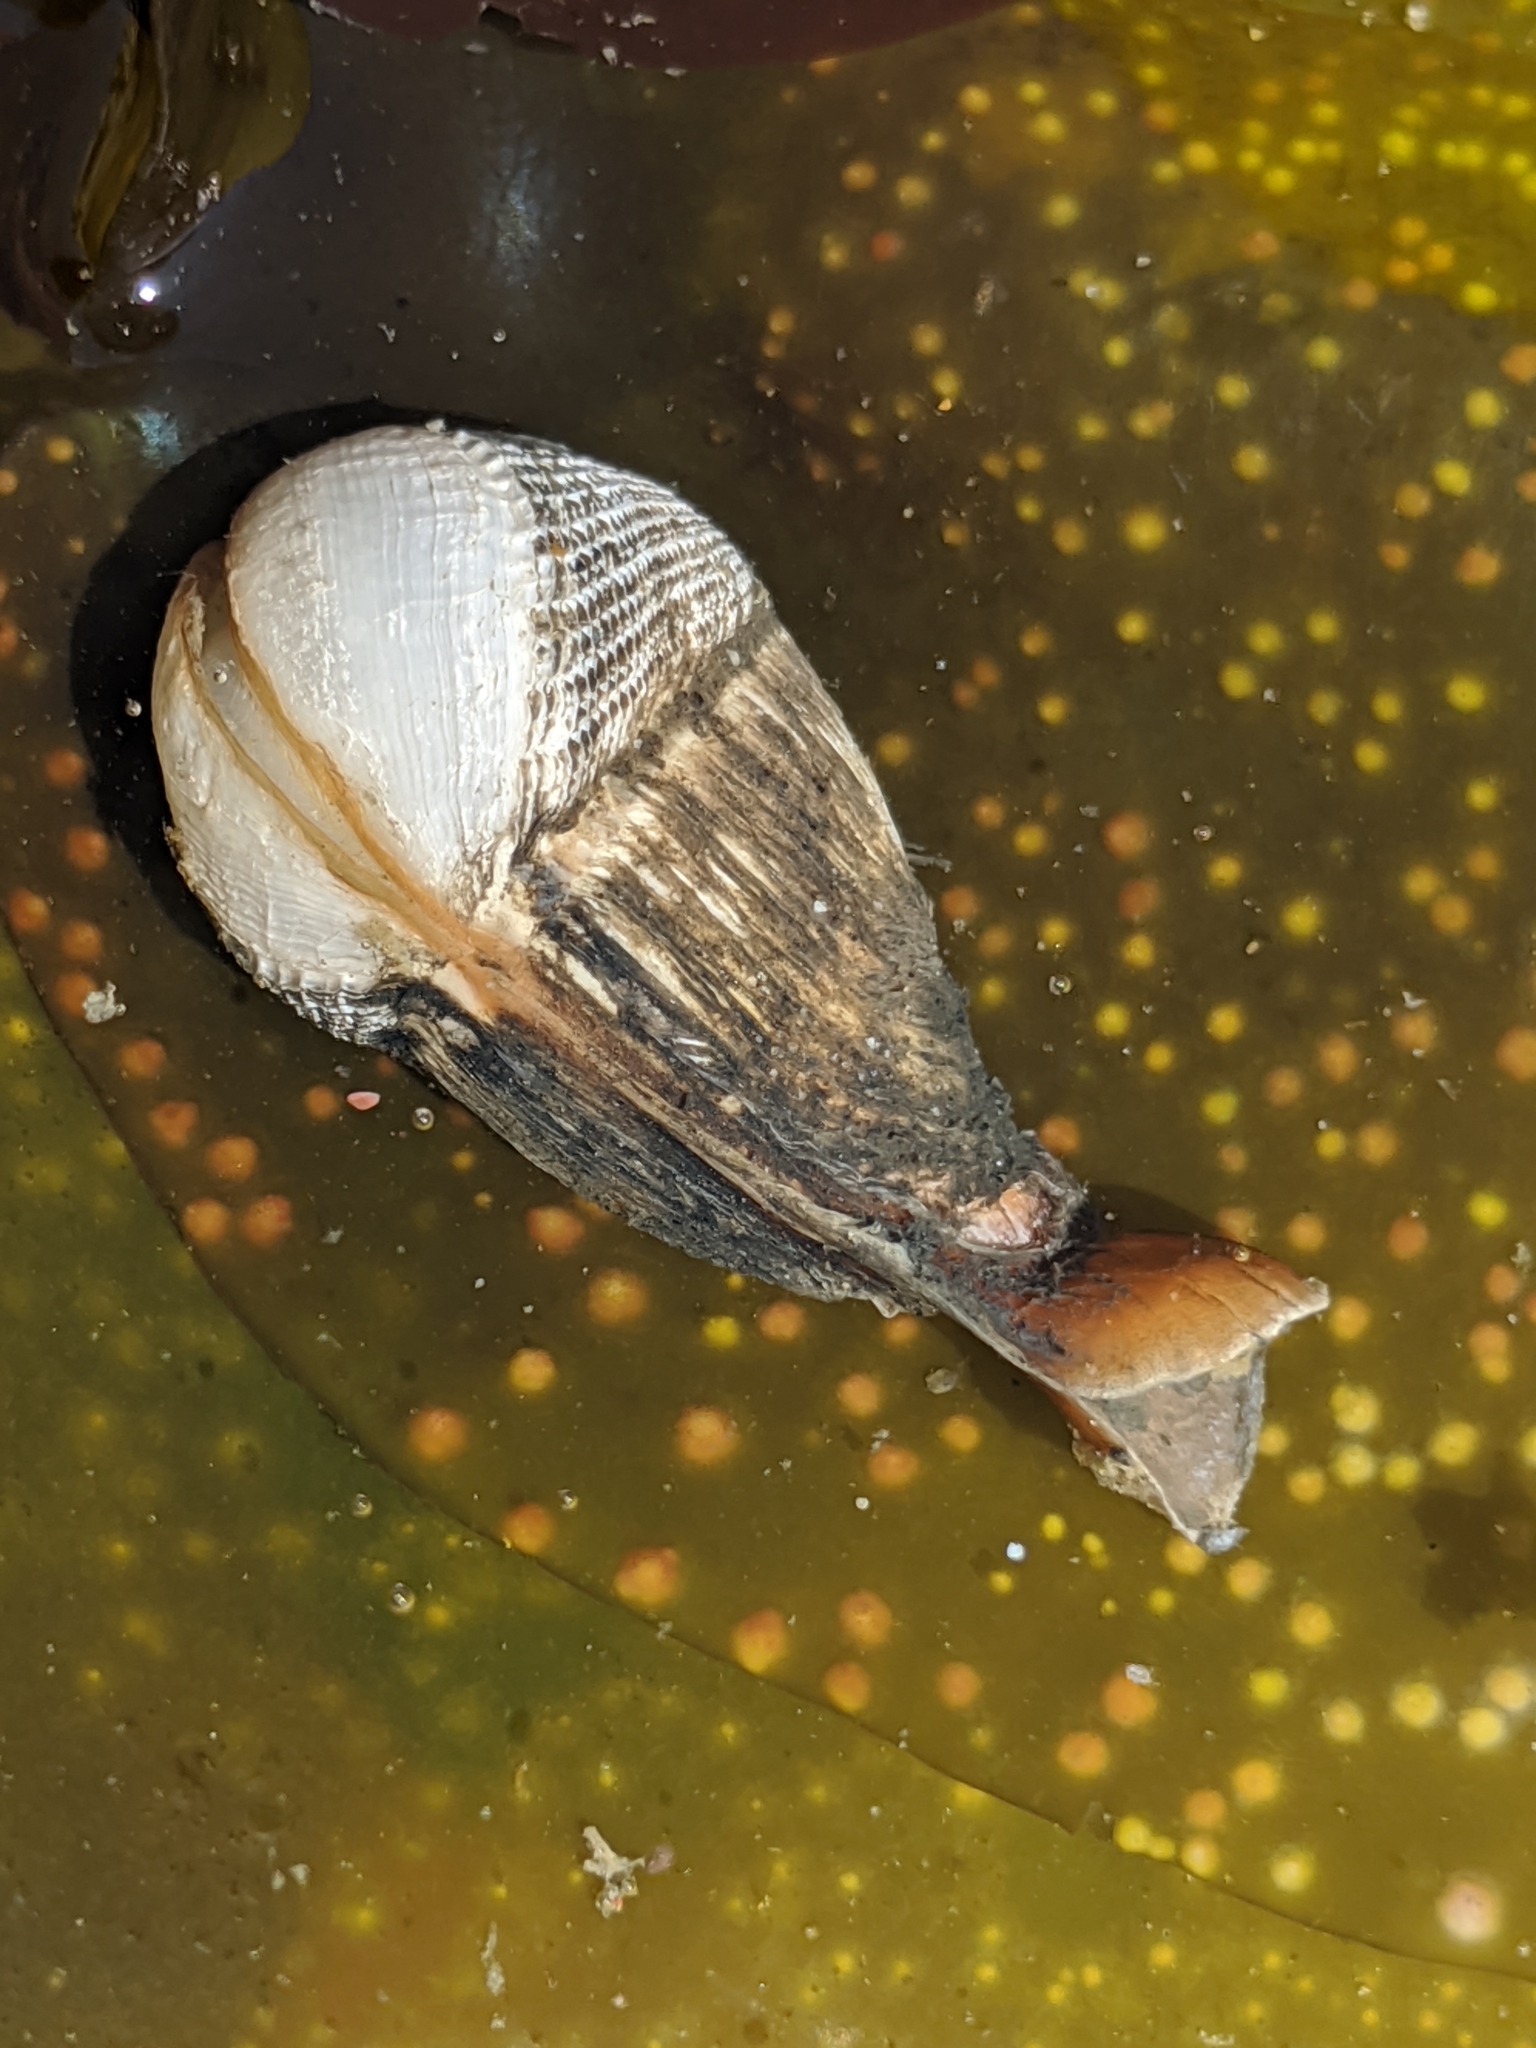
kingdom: Animalia
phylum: Mollusca
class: Bivalvia
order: Myida
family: Pholadidae
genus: Penitella
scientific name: Penitella penita
